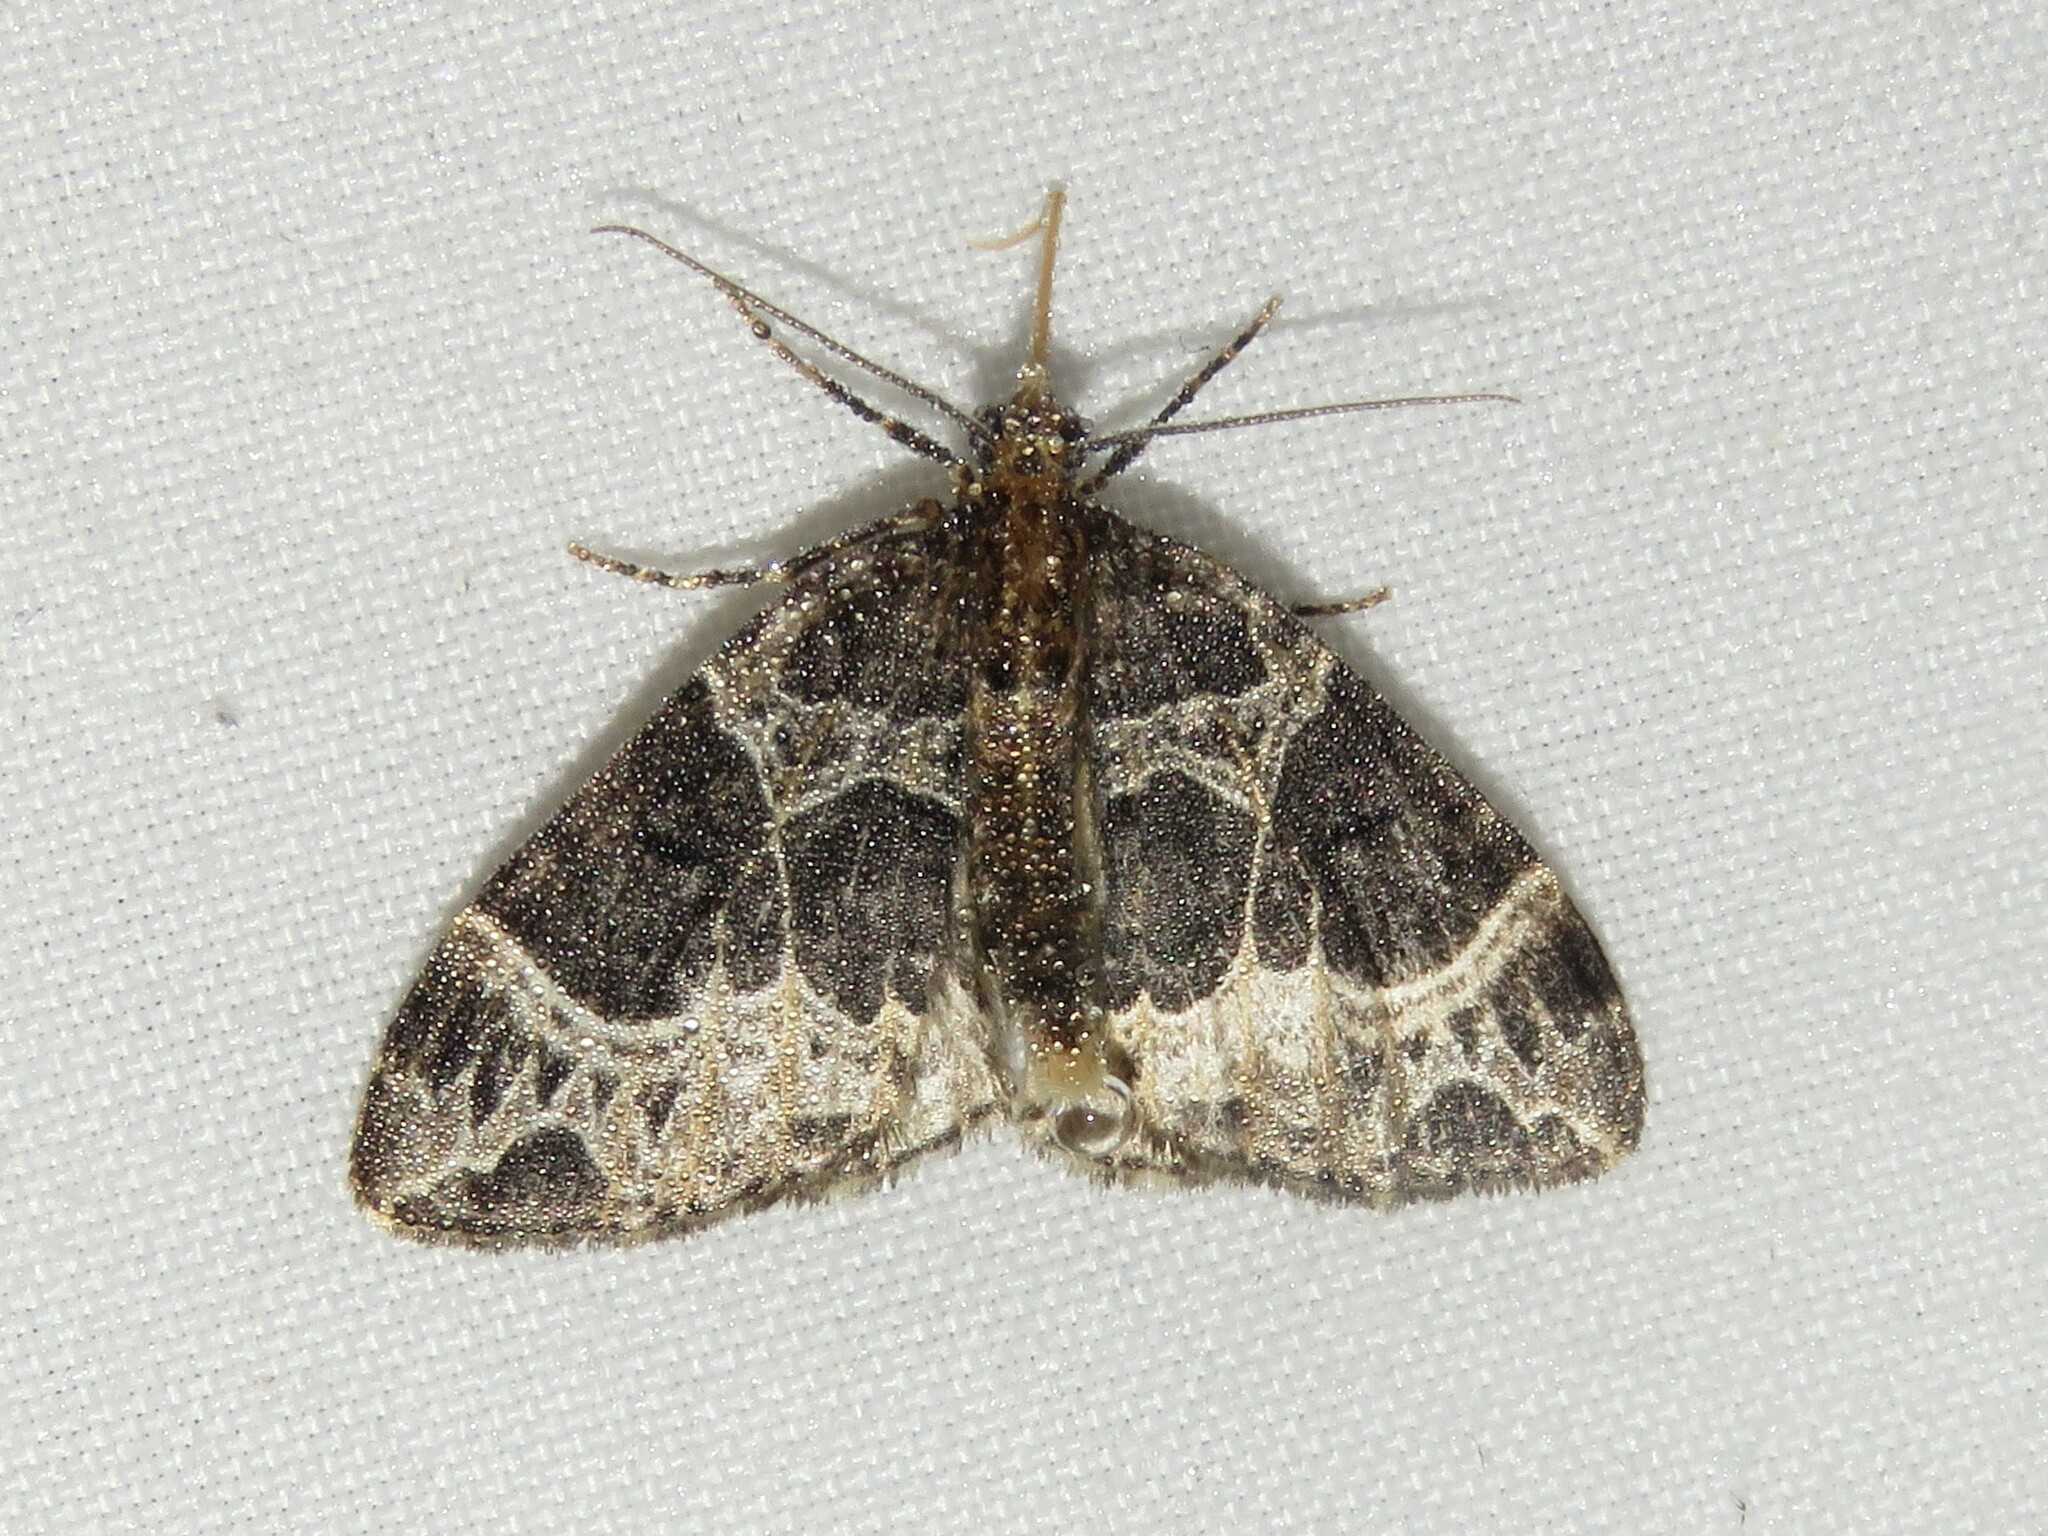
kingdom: Animalia
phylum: Arthropoda
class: Insecta
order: Lepidoptera
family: Geometridae
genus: Ecliptopera
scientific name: Ecliptopera silaceata
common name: Small phoenix
